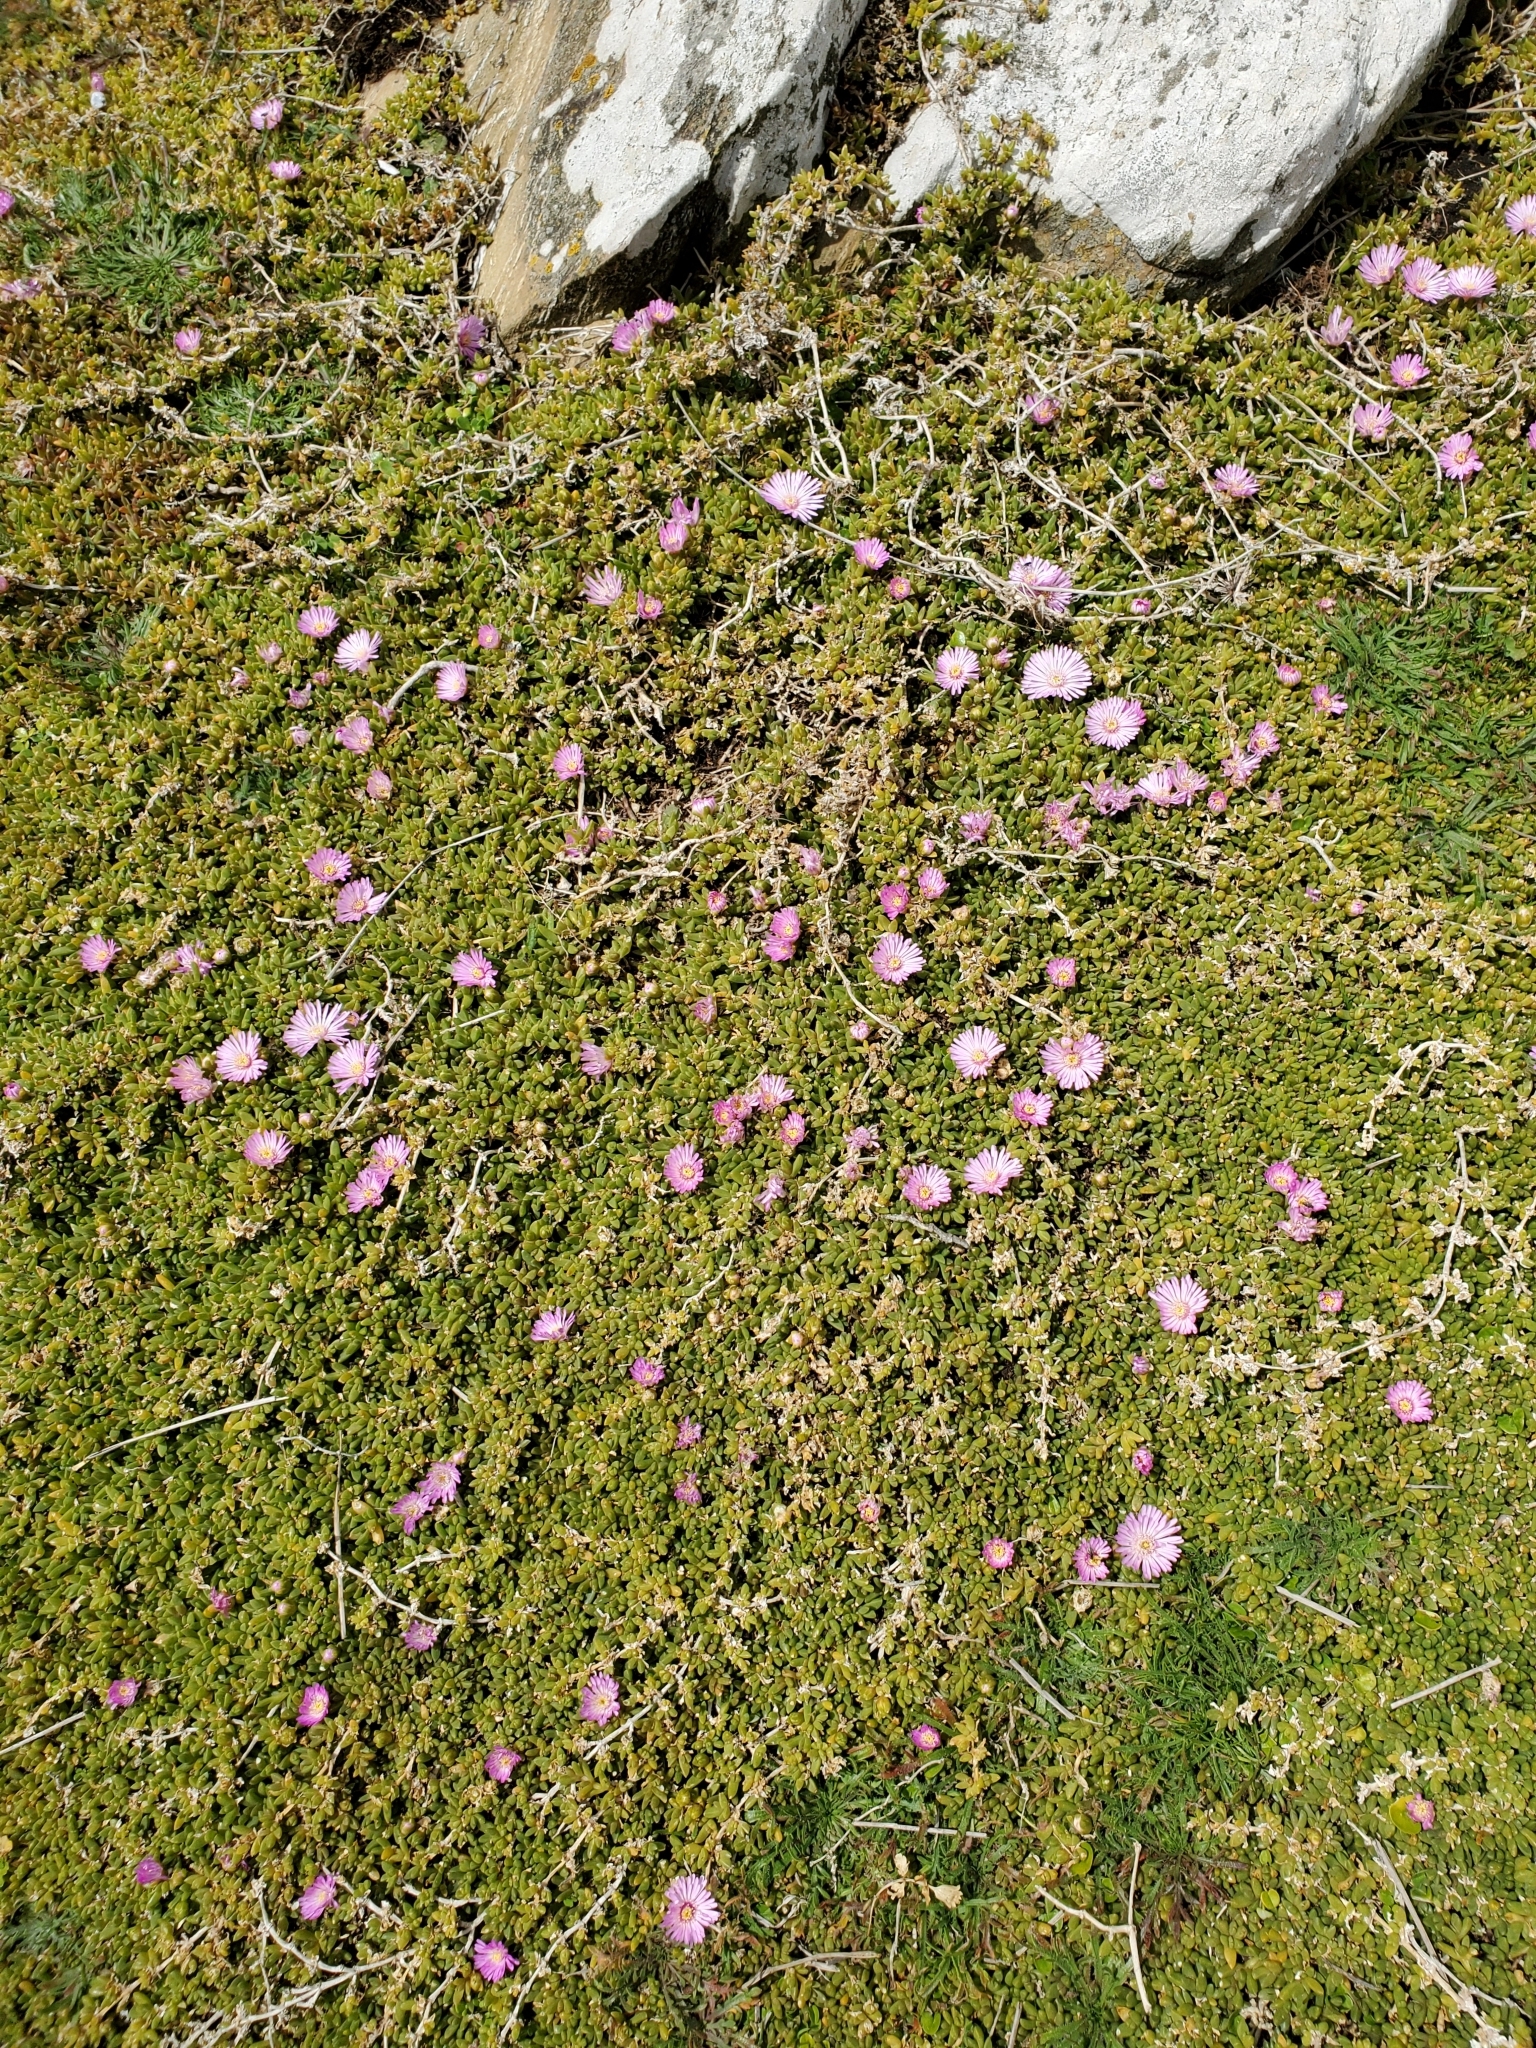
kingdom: Plantae
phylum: Tracheophyta
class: Magnoliopsida
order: Caryophyllales
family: Aizoaceae
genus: Disphyma
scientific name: Disphyma australe
